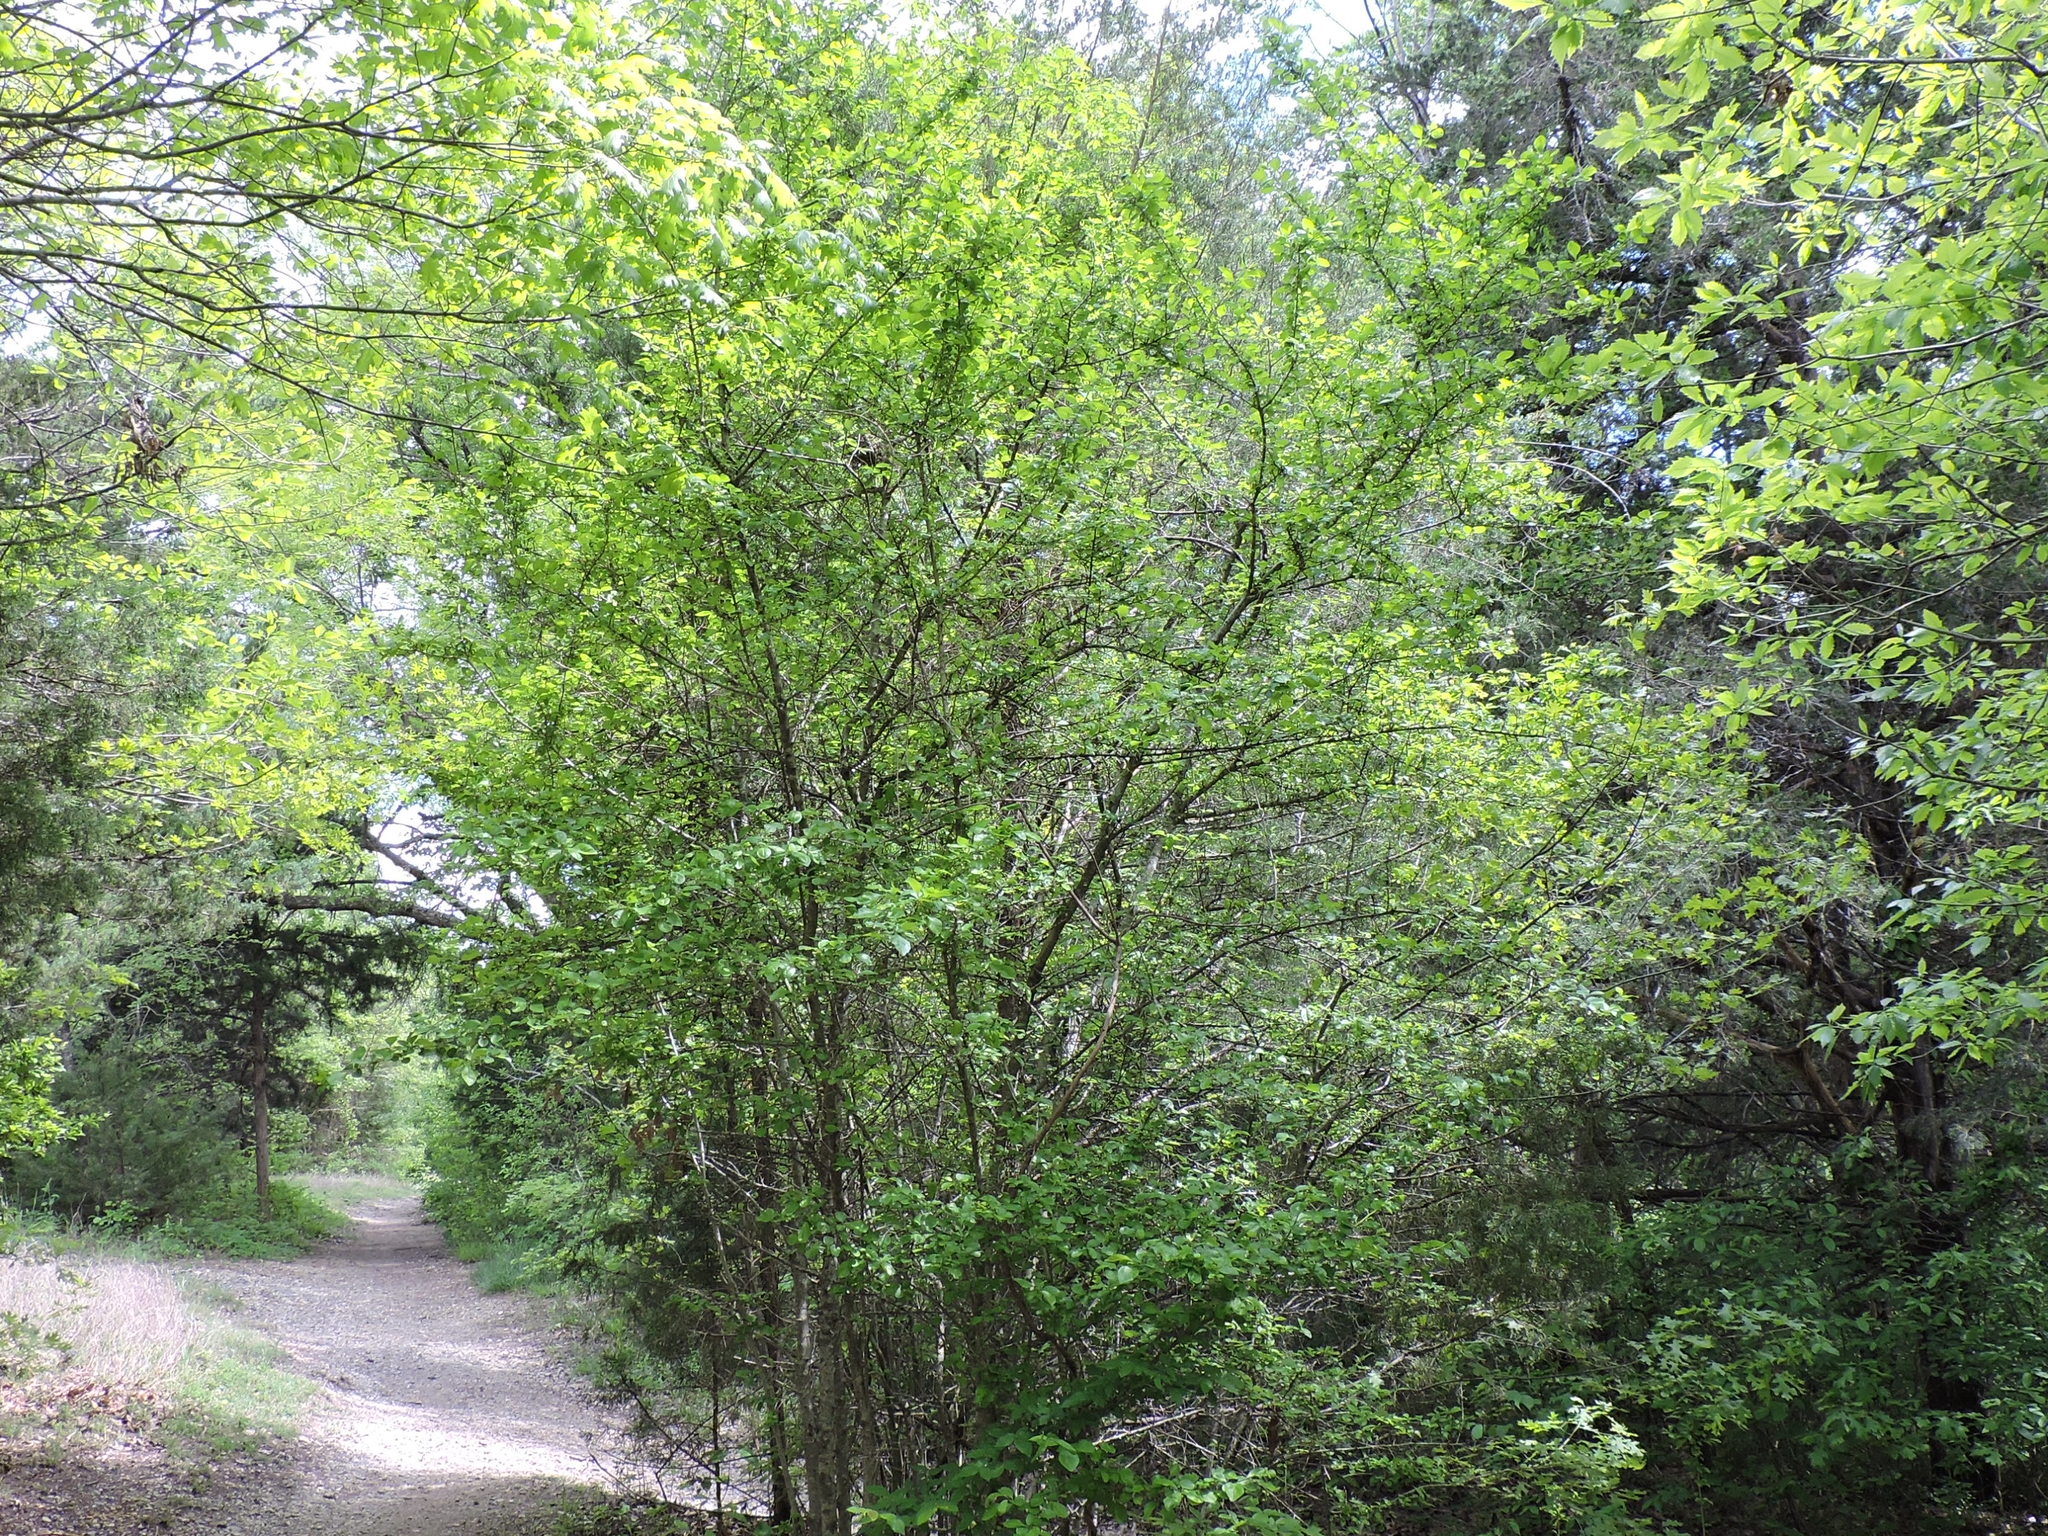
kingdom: Plantae
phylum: Tracheophyta
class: Magnoliopsida
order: Aquifoliales
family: Aquifoliaceae
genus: Ilex
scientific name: Ilex decidua
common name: Possum-haw
